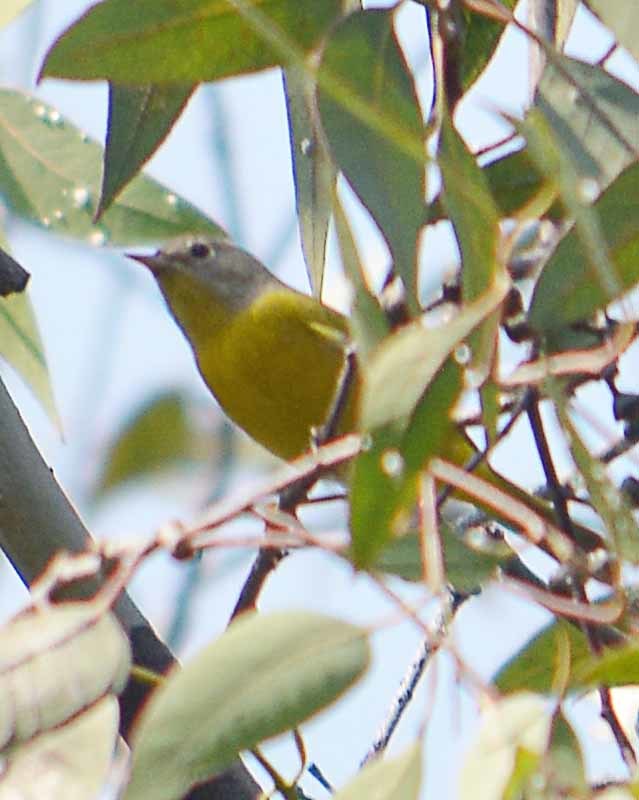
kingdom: Animalia
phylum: Chordata
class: Aves
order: Passeriformes
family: Parulidae
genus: Leiothlypis
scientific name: Leiothlypis ruficapilla
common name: Nashville warbler
